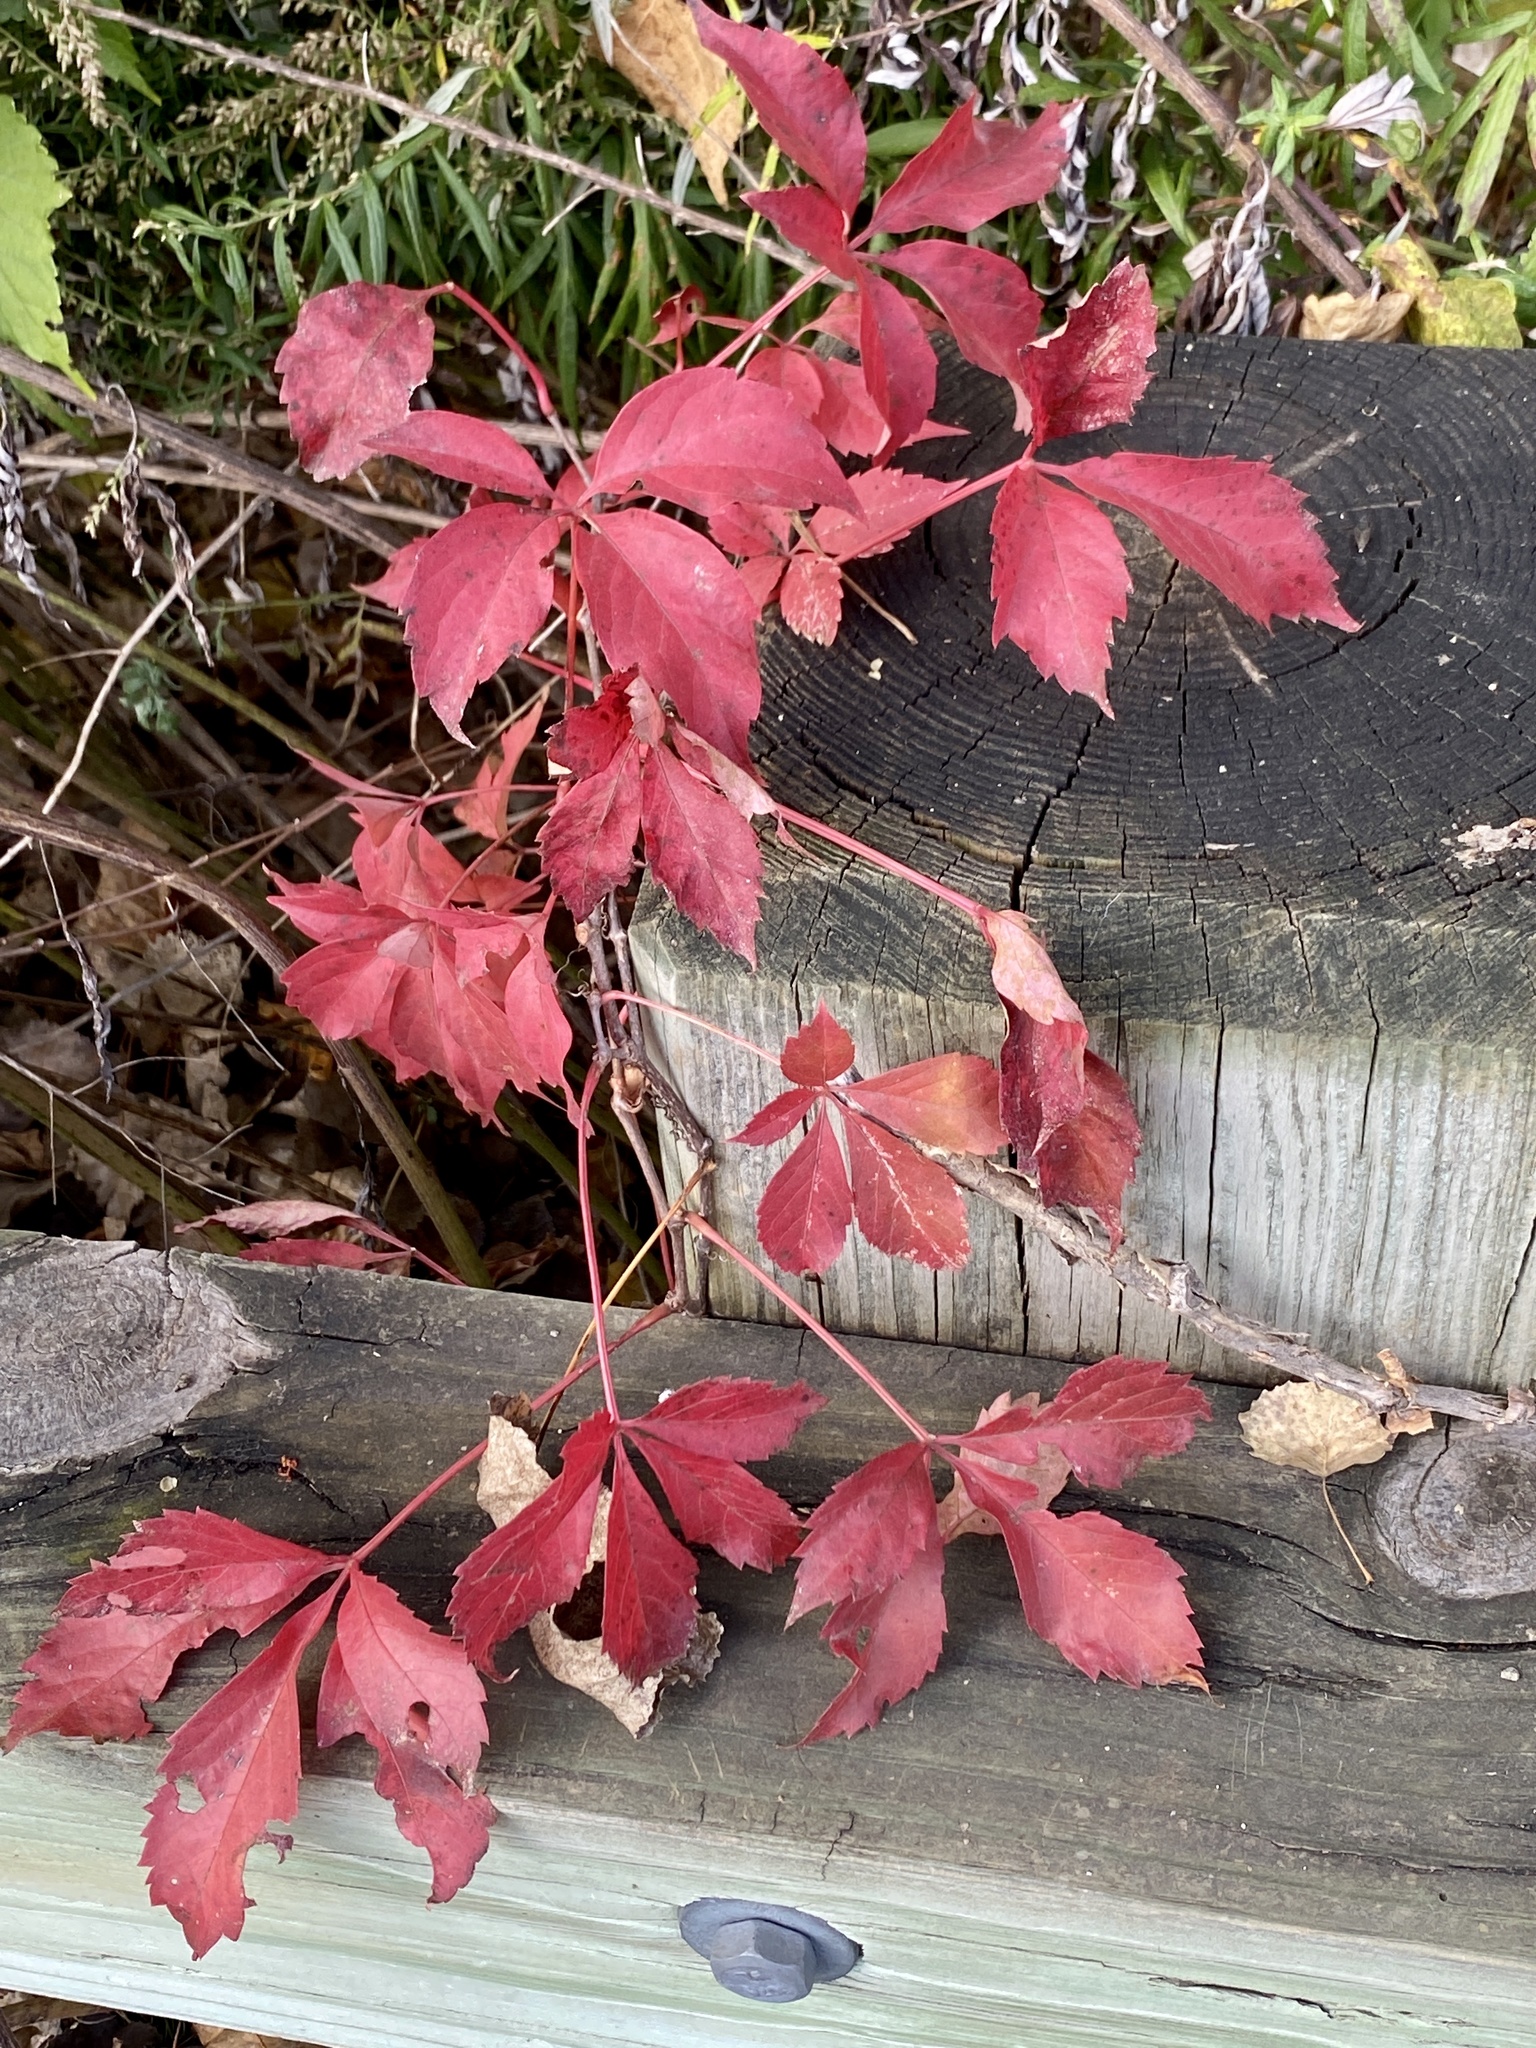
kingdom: Plantae
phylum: Tracheophyta
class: Magnoliopsida
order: Vitales
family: Vitaceae
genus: Parthenocissus
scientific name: Parthenocissus quinquefolia
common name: Virginia-creeper
